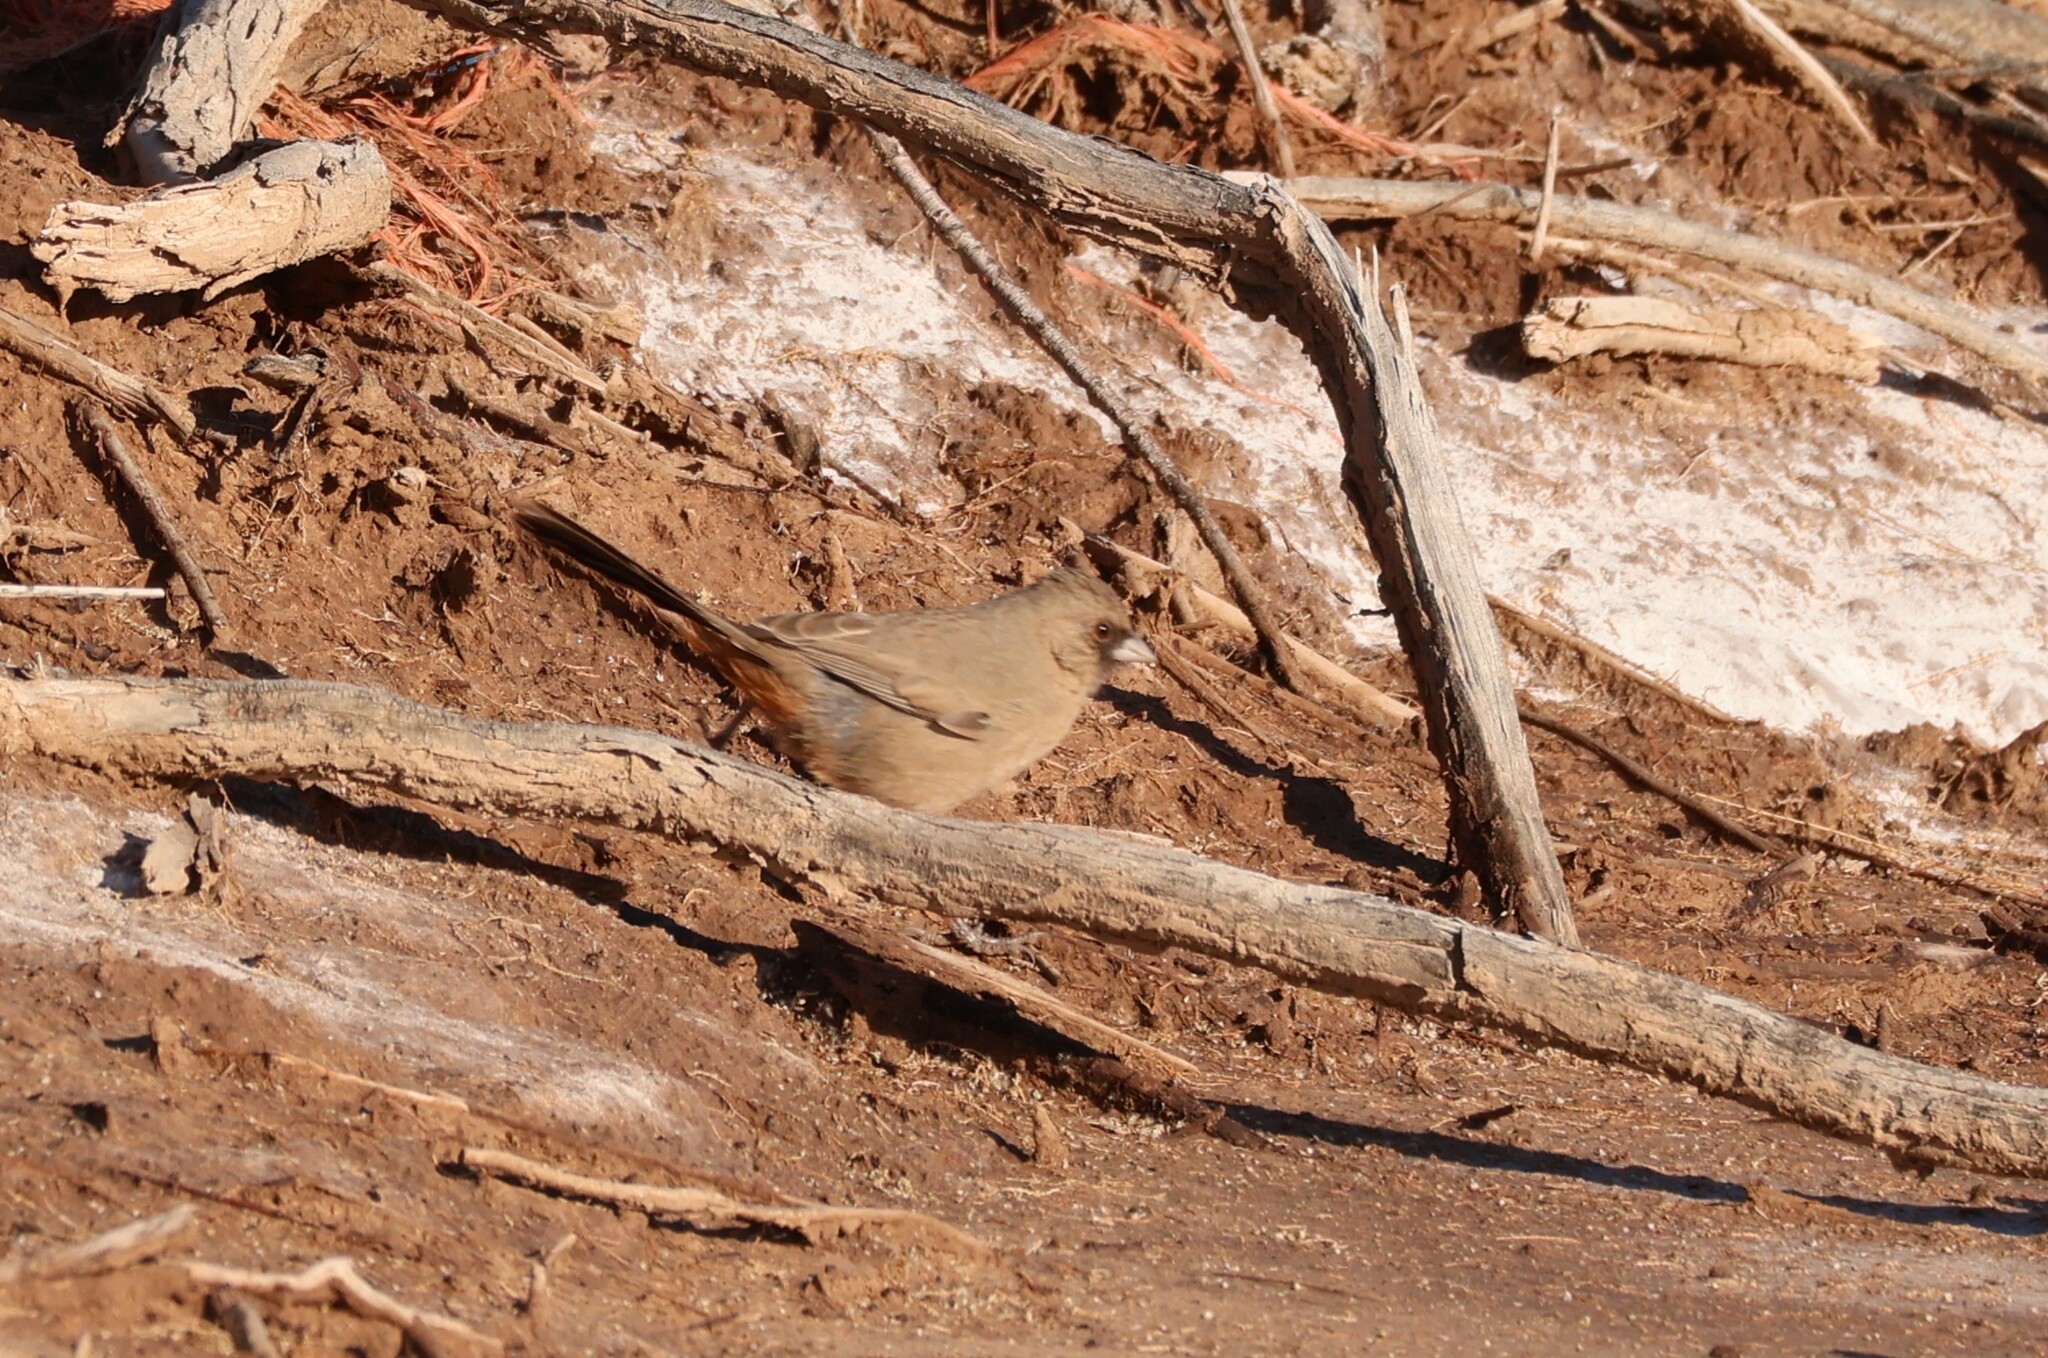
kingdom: Animalia
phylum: Chordata
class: Aves
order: Passeriformes
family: Passerellidae
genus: Melozone
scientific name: Melozone aberti
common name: Abert's towhee
